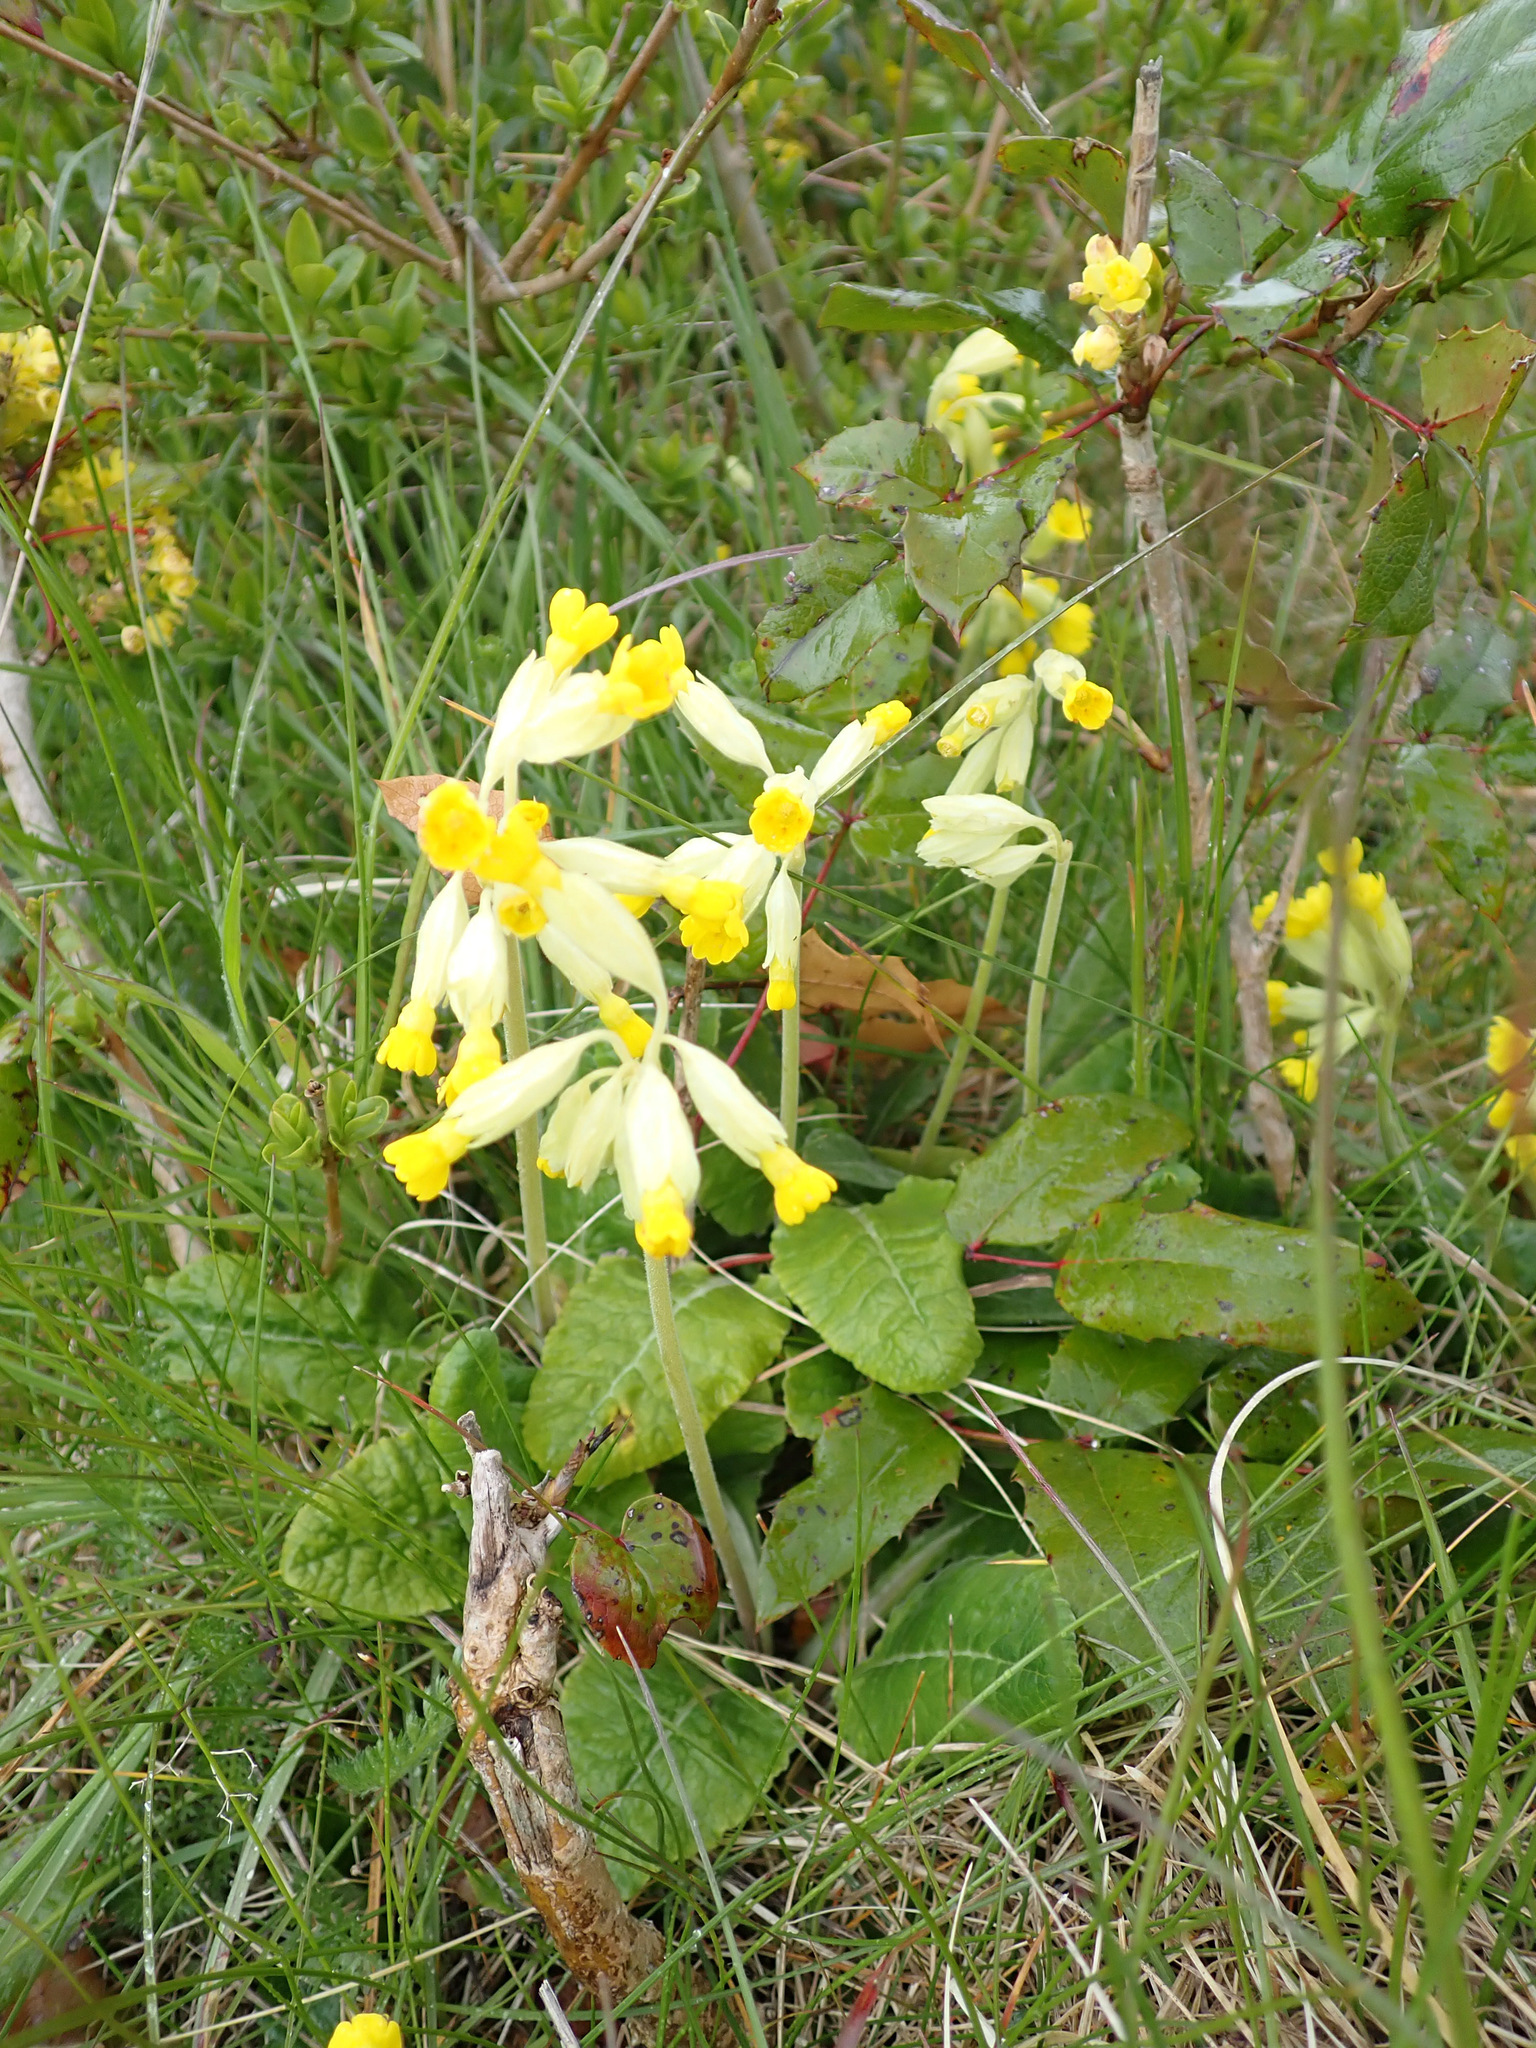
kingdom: Plantae
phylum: Tracheophyta
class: Magnoliopsida
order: Ericales
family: Primulaceae
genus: Primula
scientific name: Primula veris
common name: Cowslip
